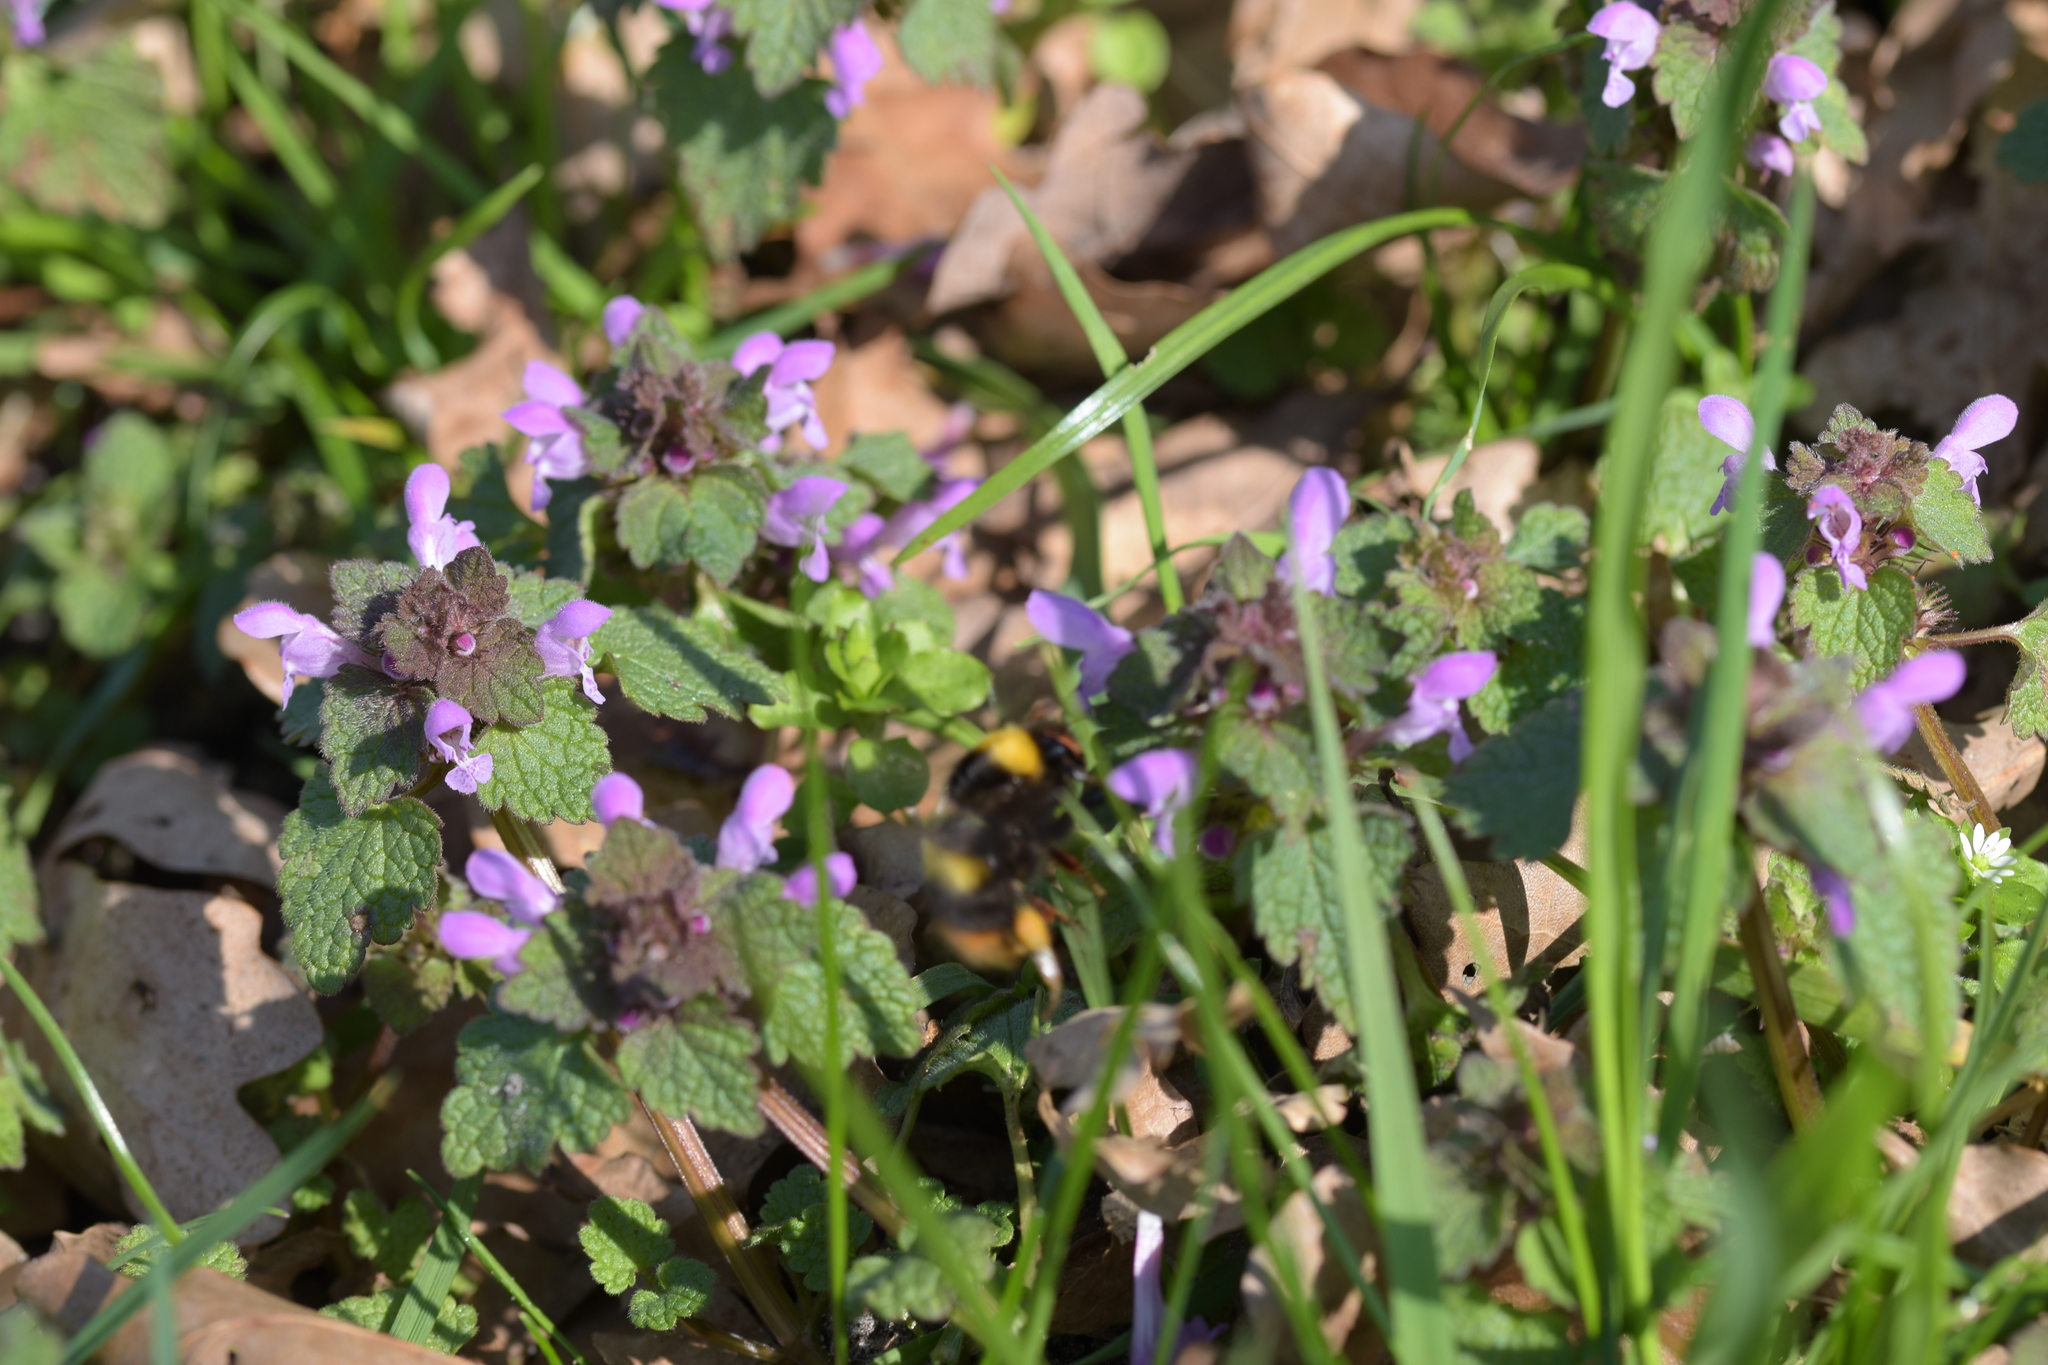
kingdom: Animalia
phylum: Arthropoda
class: Insecta
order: Hymenoptera
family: Apidae
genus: Bombus
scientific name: Bombus pratorum
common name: Early humble-bee
